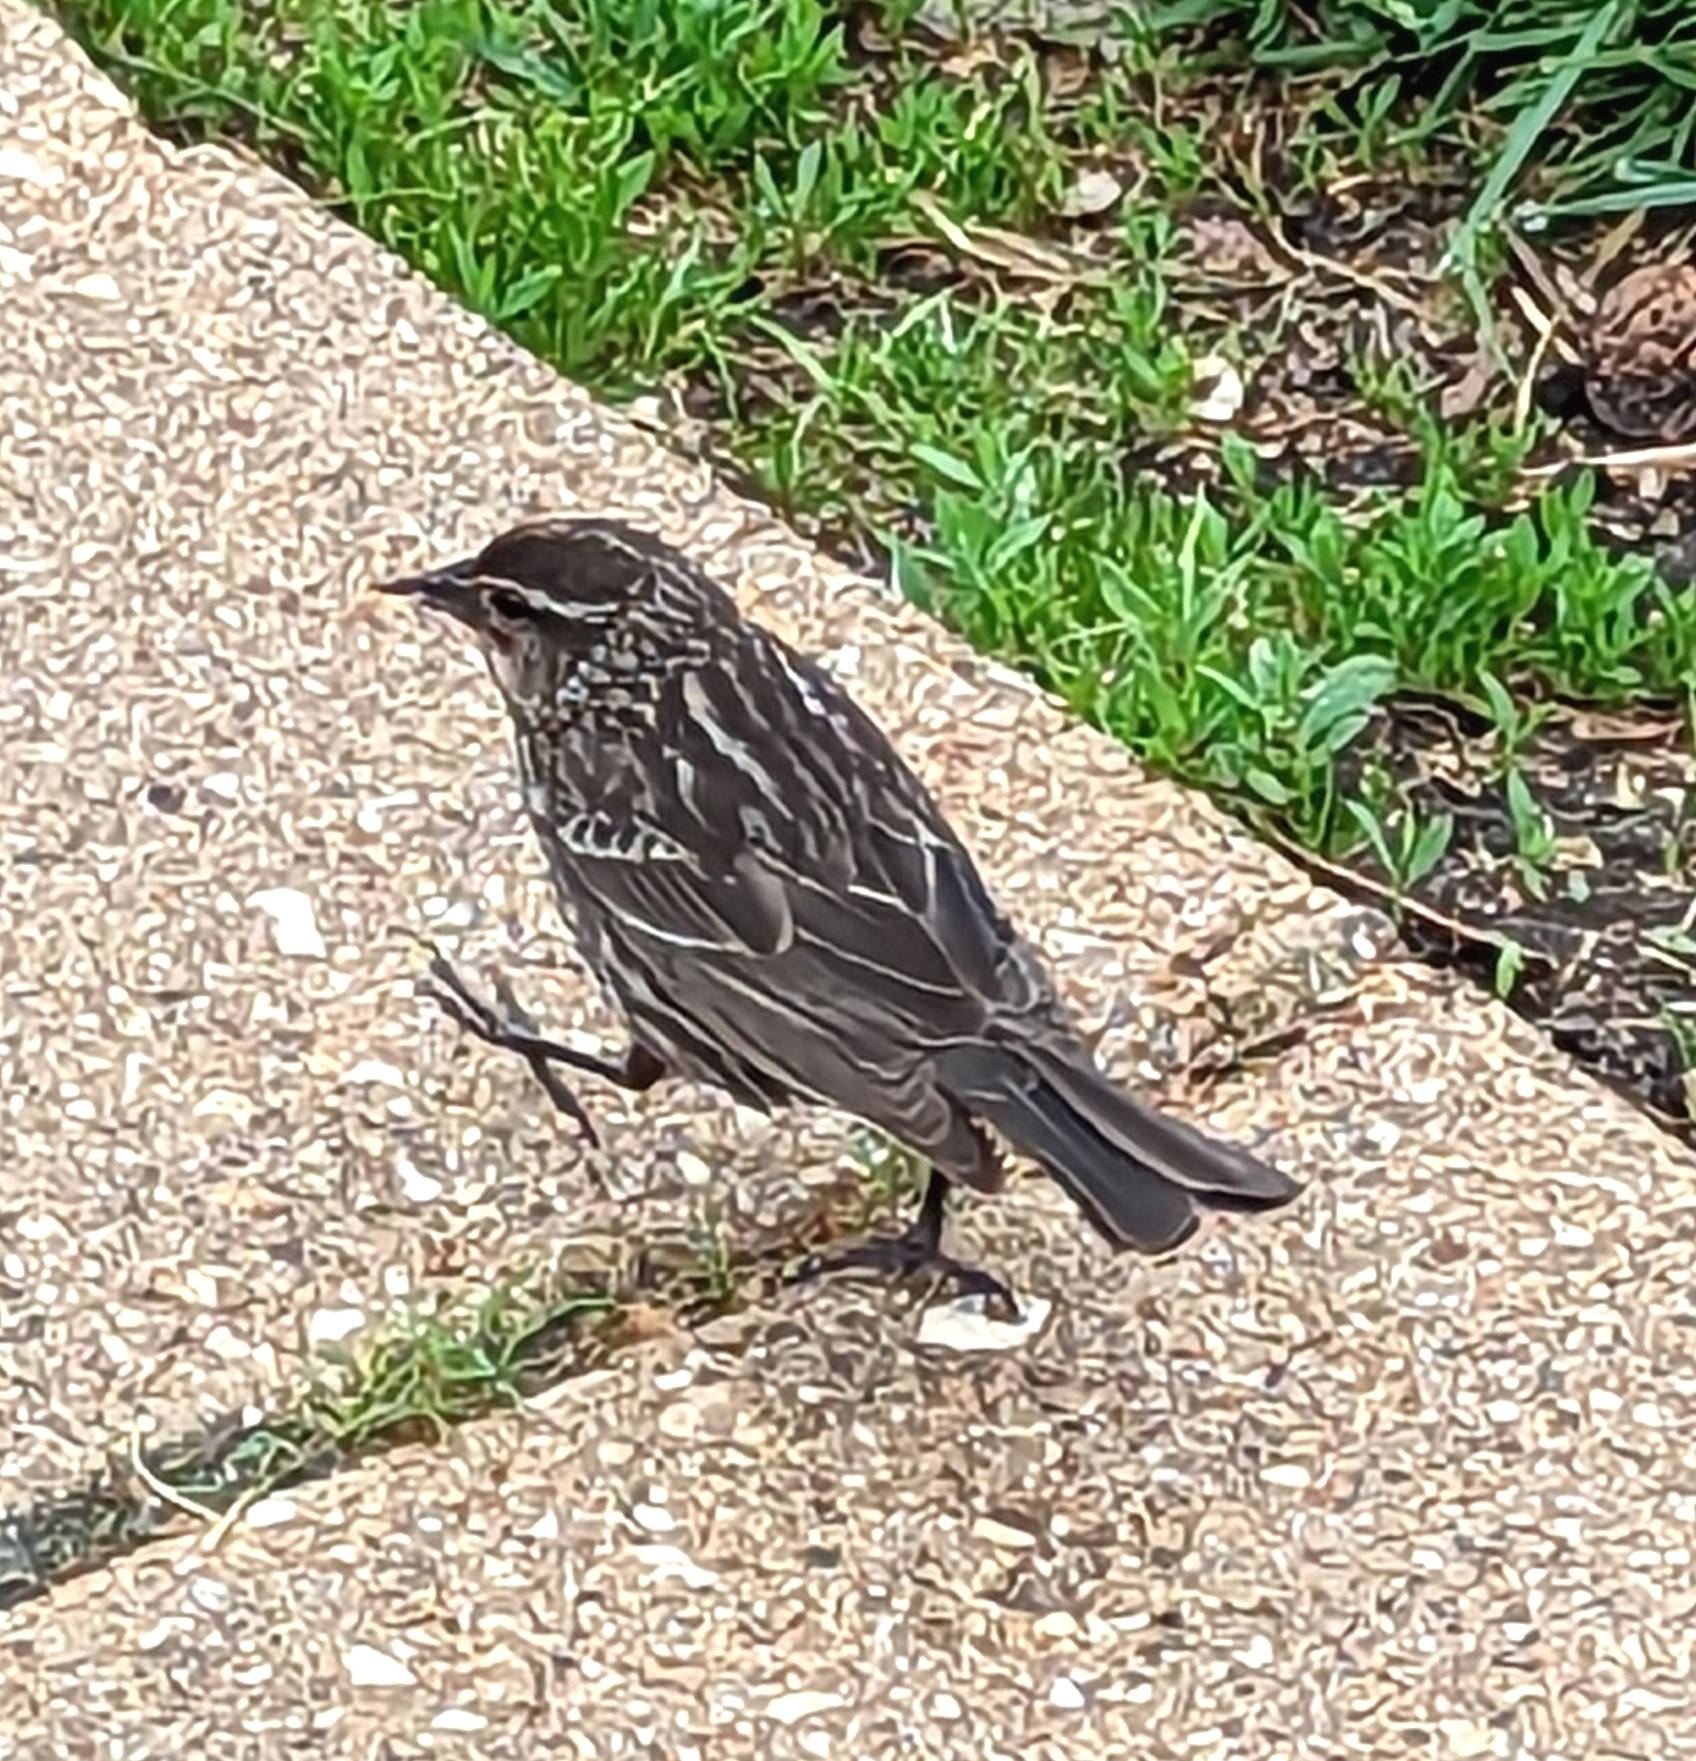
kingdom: Animalia
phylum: Chordata
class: Aves
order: Passeriformes
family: Icteridae
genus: Agelaius
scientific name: Agelaius phoeniceus
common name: Red-winged blackbird
